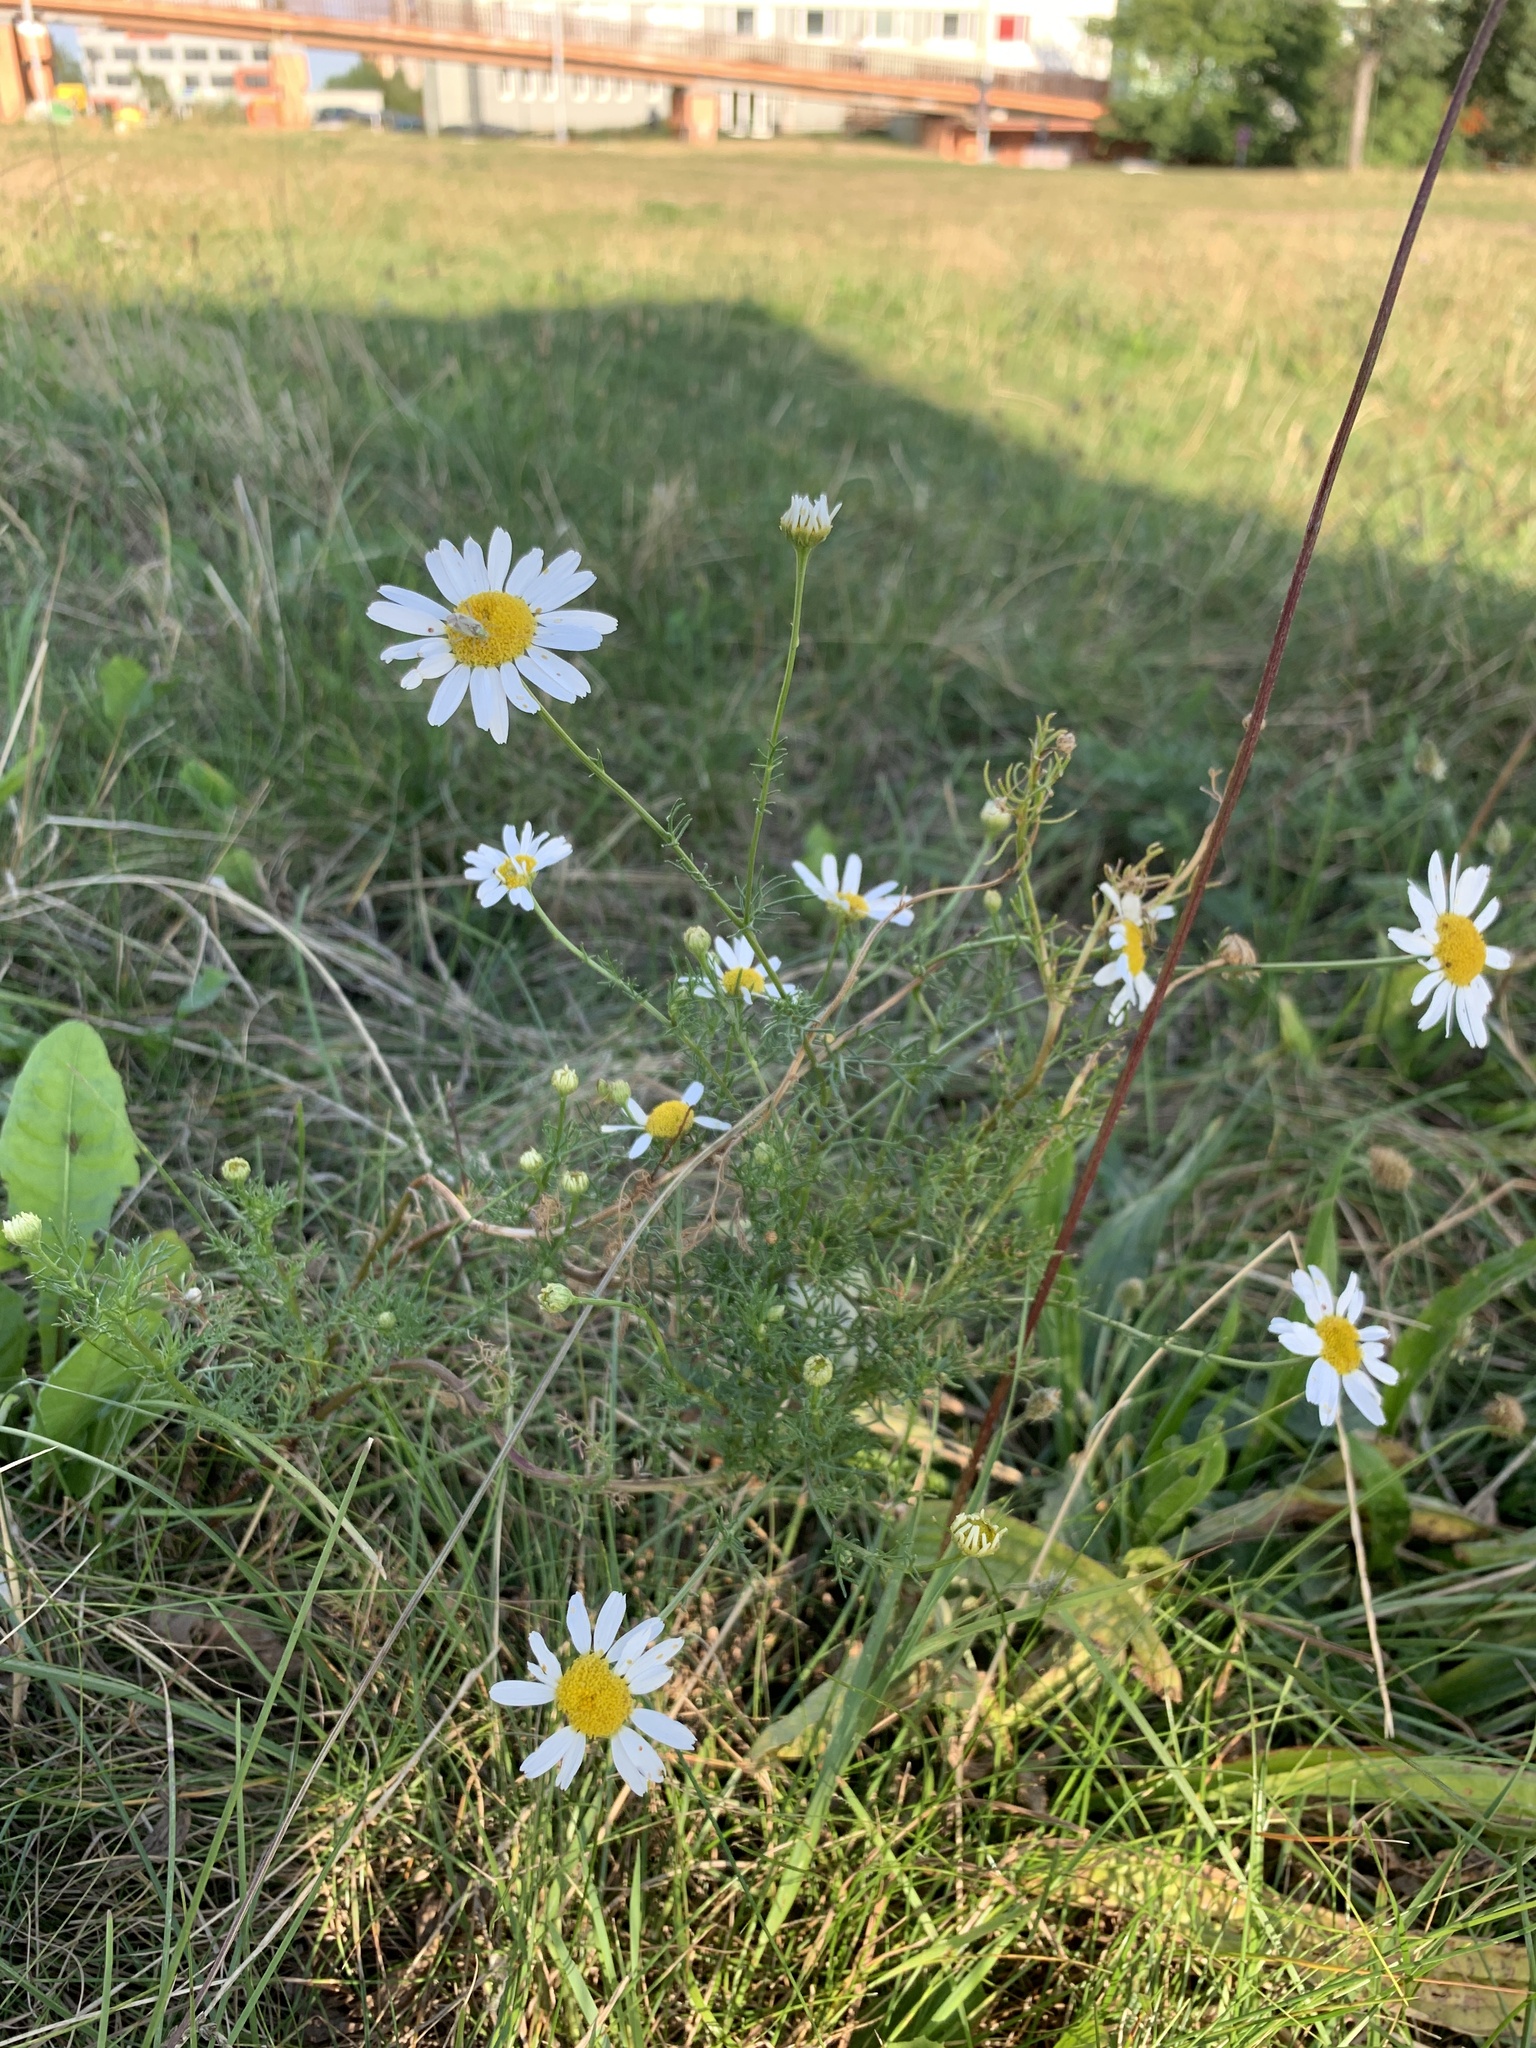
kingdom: Plantae
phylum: Tracheophyta
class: Magnoliopsida
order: Asterales
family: Asteraceae
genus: Tripleurospermum
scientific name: Tripleurospermum inodorum
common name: Scentless mayweed
